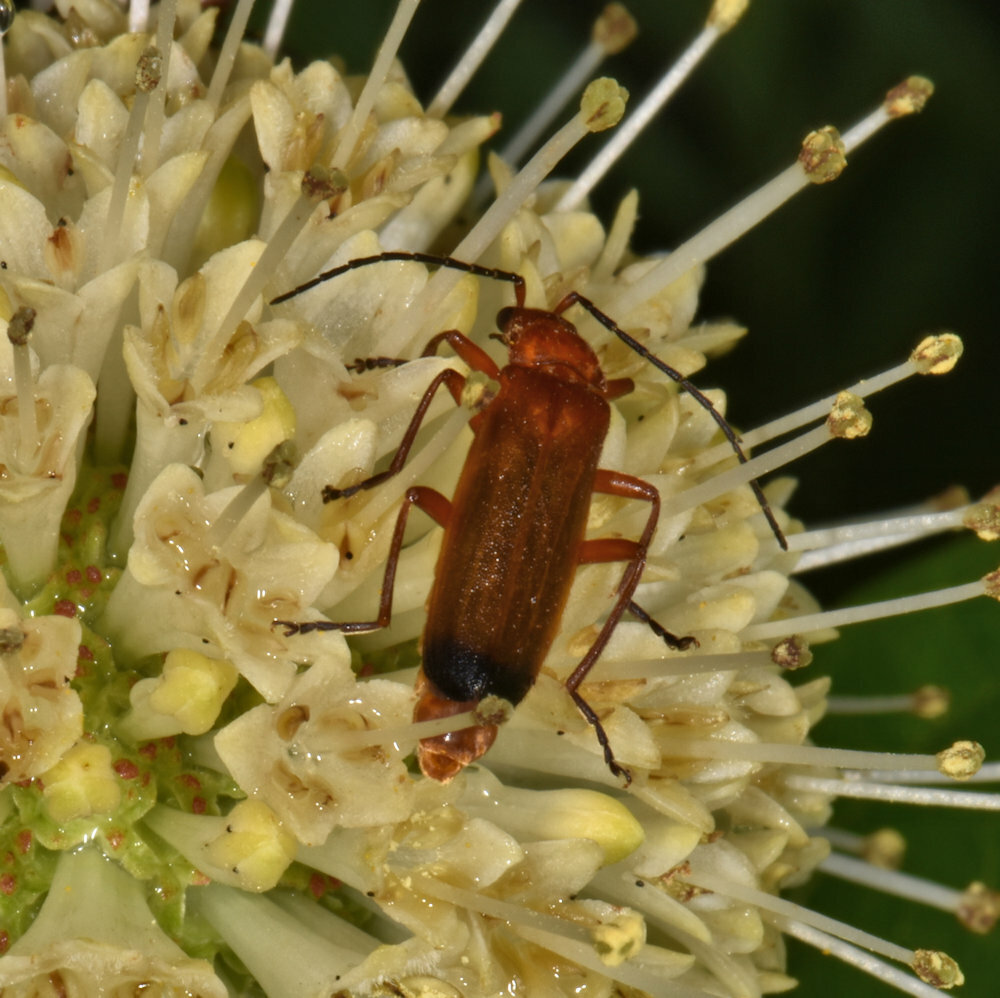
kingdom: Animalia
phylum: Arthropoda
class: Insecta
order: Coleoptera
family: Cantharidae
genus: Rhagonycha
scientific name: Rhagonycha fulva
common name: Common red soldier beetle
